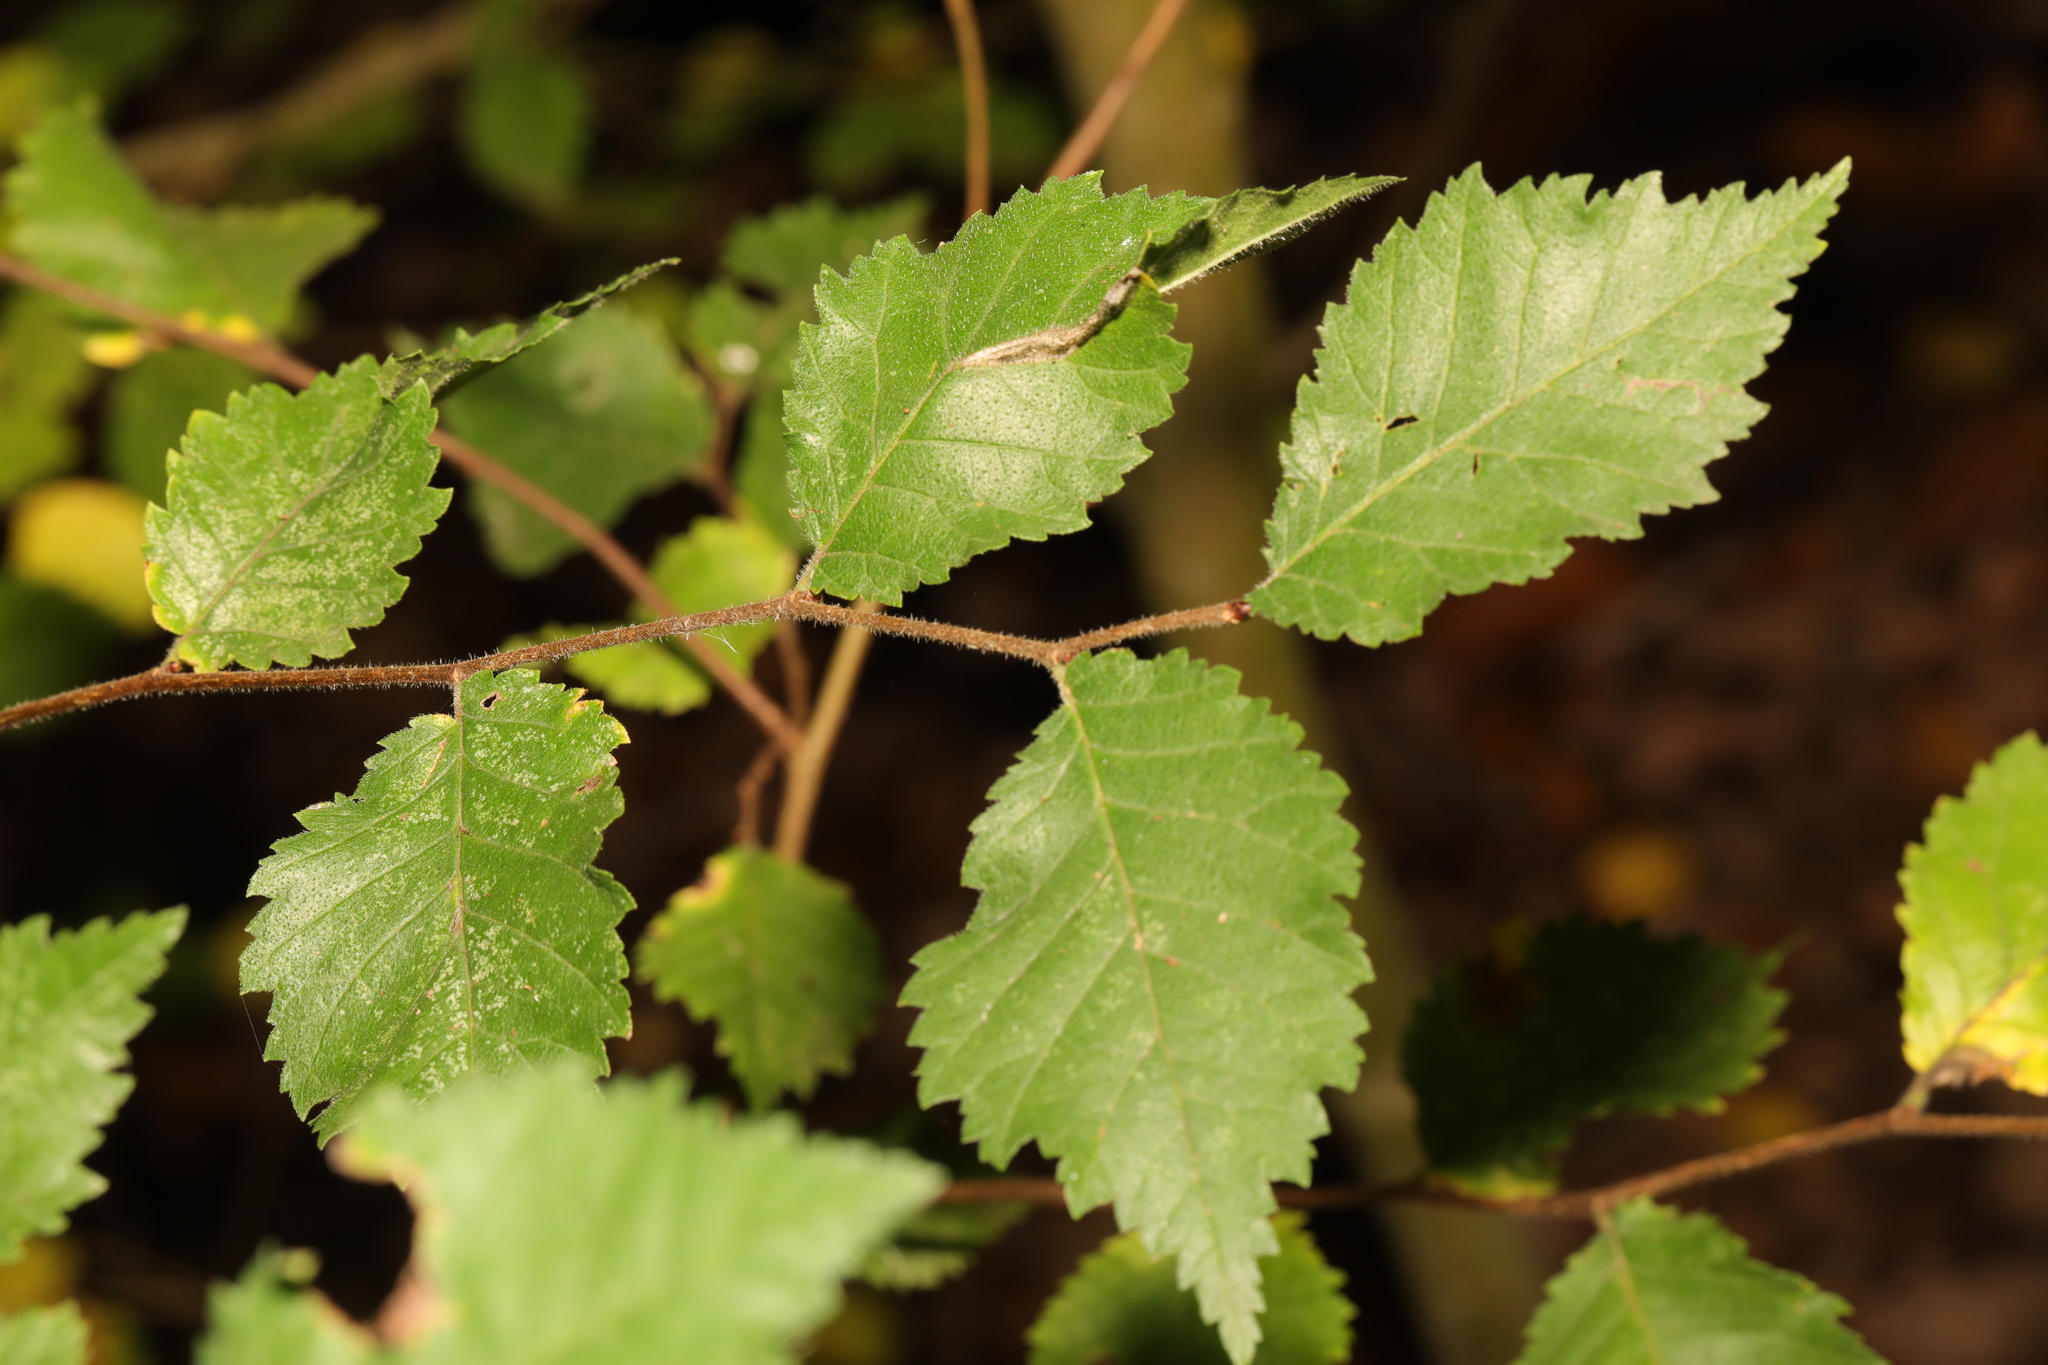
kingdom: Plantae
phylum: Tracheophyta
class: Magnoliopsida
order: Rosales
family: Ulmaceae
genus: Ulmus
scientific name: Ulmus minor
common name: Small-leaved elm
